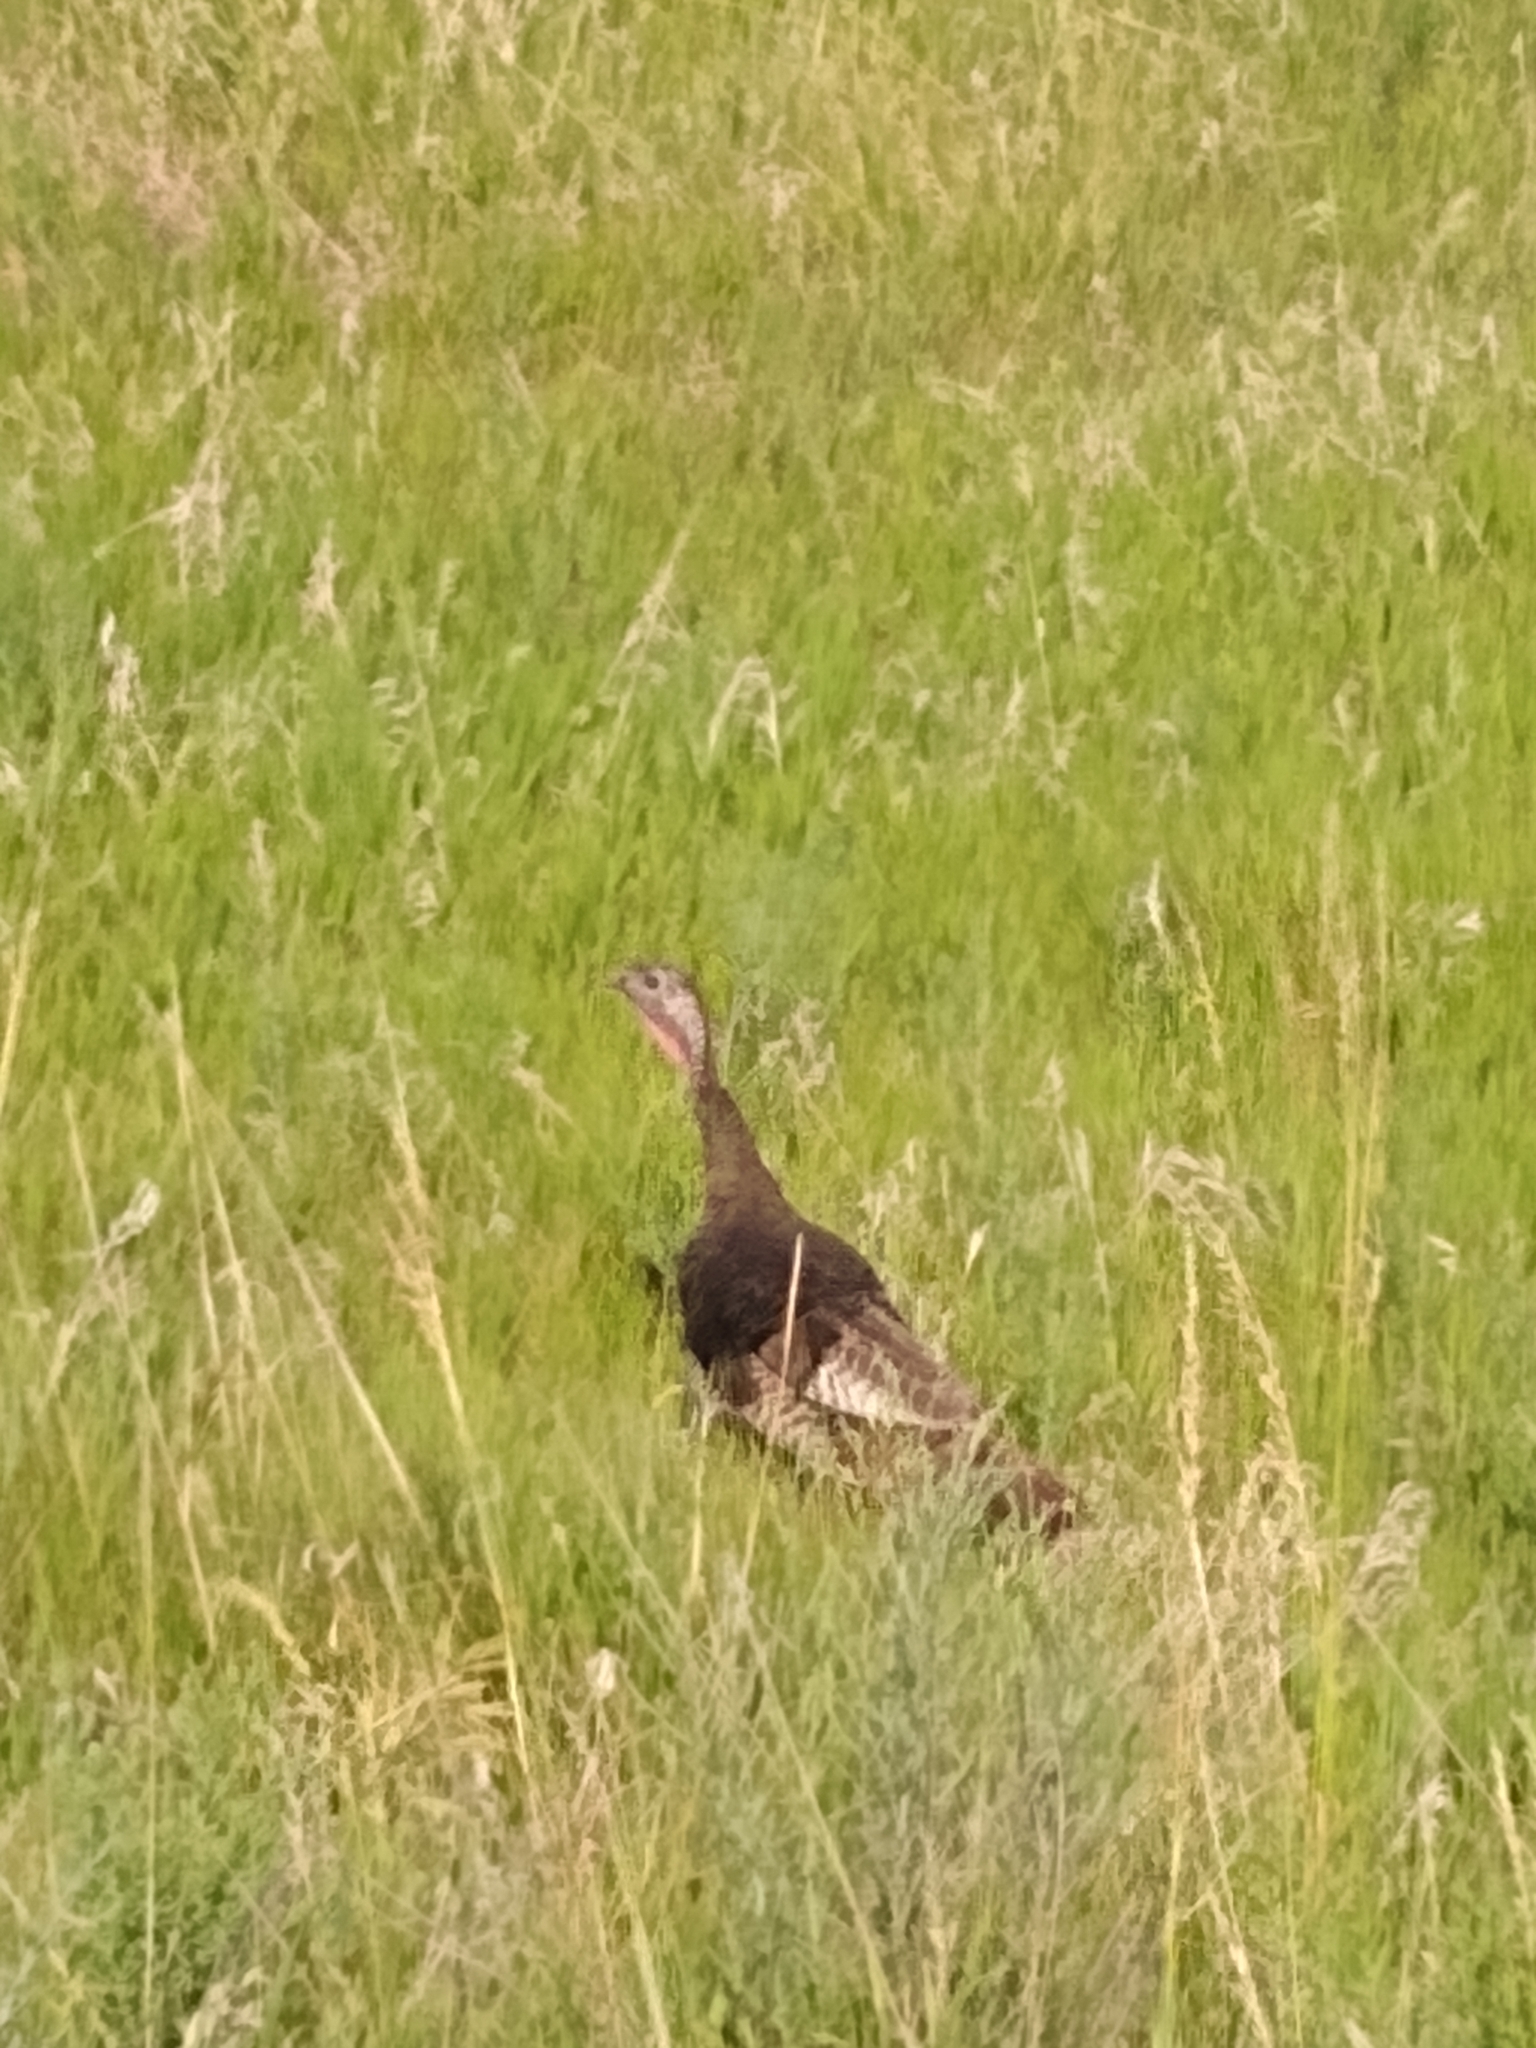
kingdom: Animalia
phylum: Chordata
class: Aves
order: Galliformes
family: Phasianidae
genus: Meleagris
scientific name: Meleagris gallopavo
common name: Wild turkey
